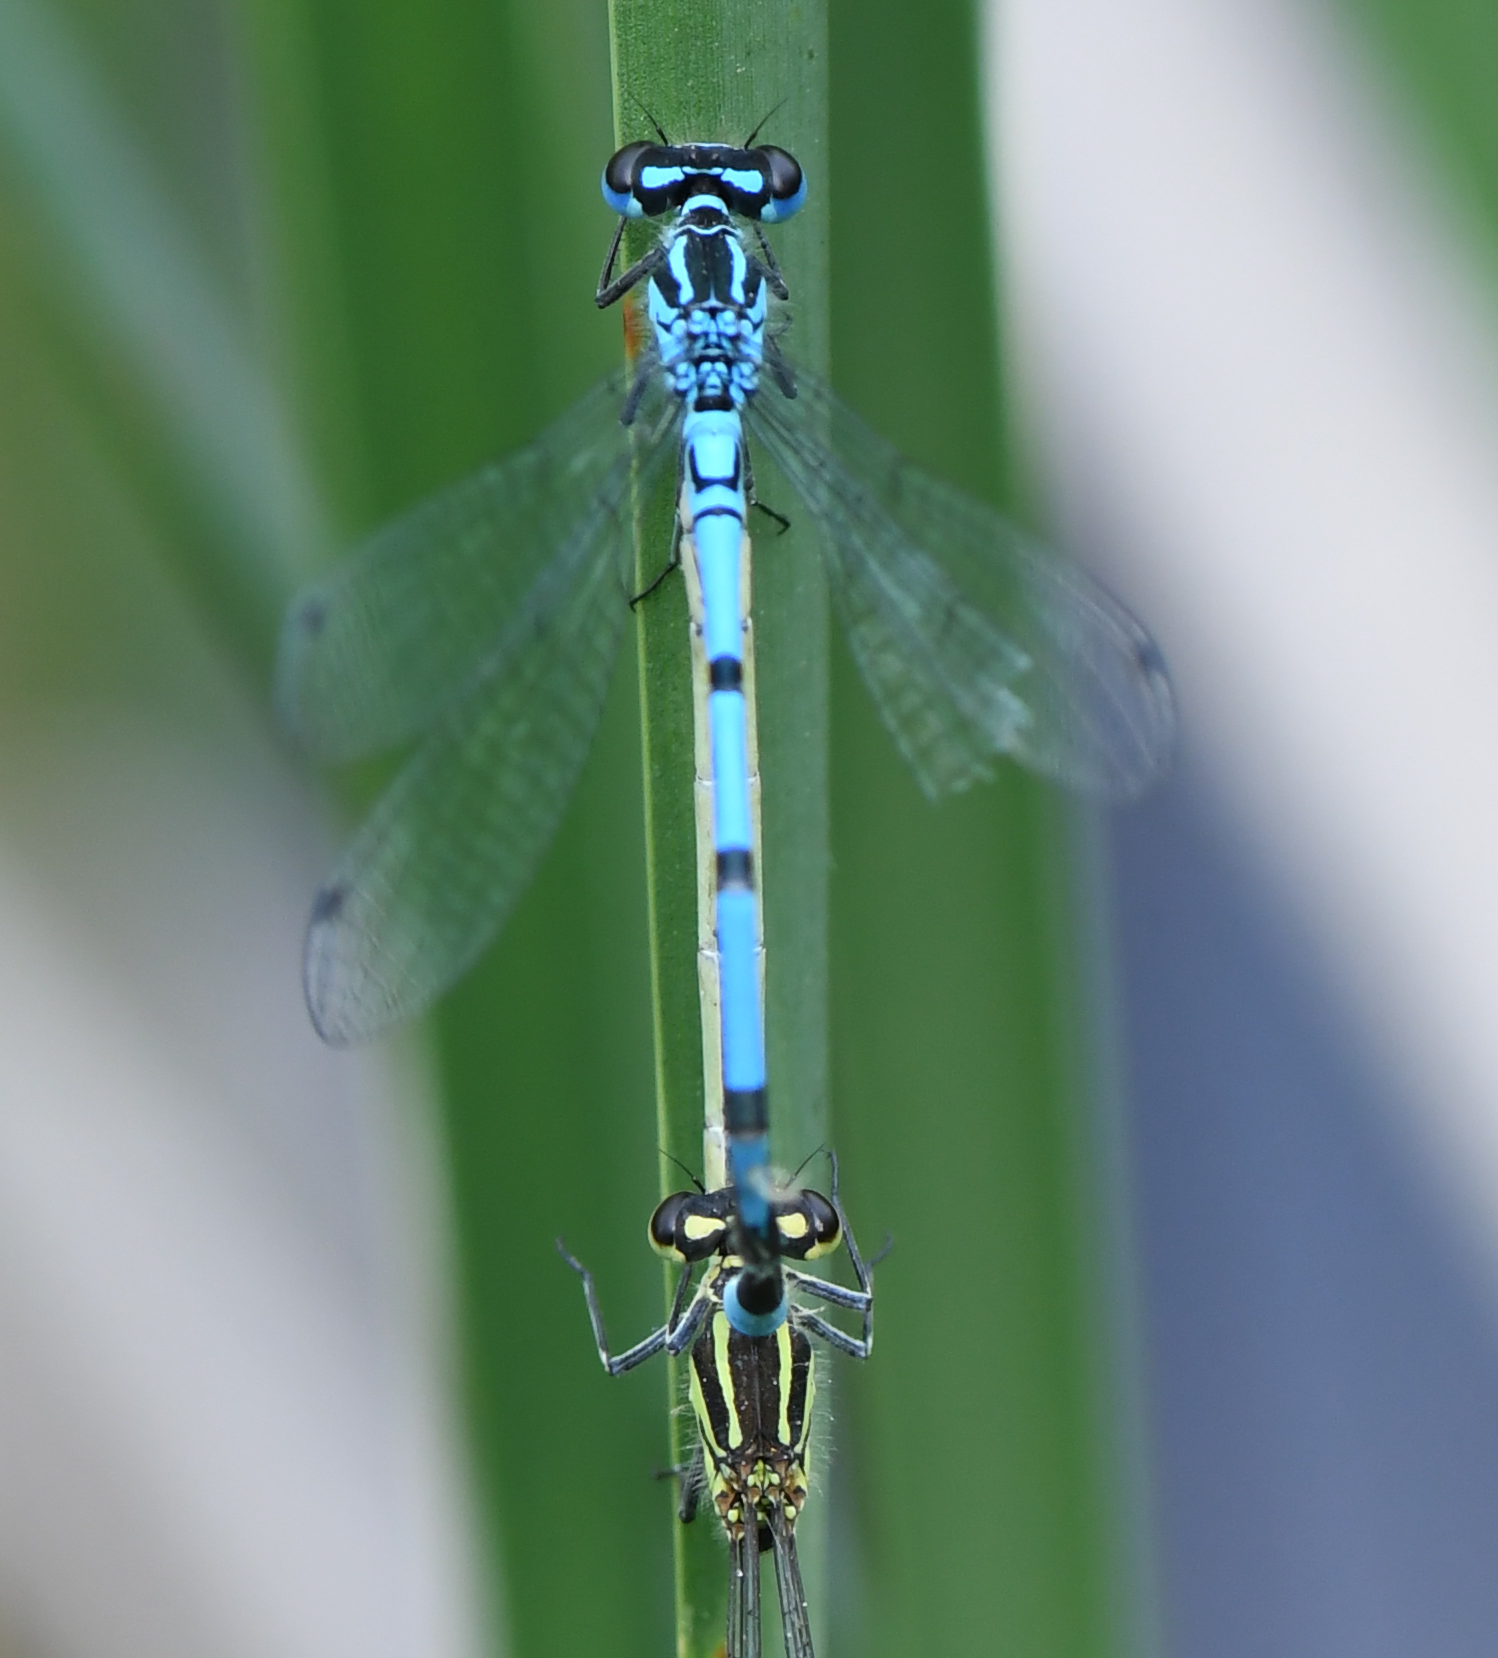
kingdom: Animalia
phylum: Arthropoda
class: Insecta
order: Odonata
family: Coenagrionidae
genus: Coenagrion
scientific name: Coenagrion puella
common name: Azure damselfly
